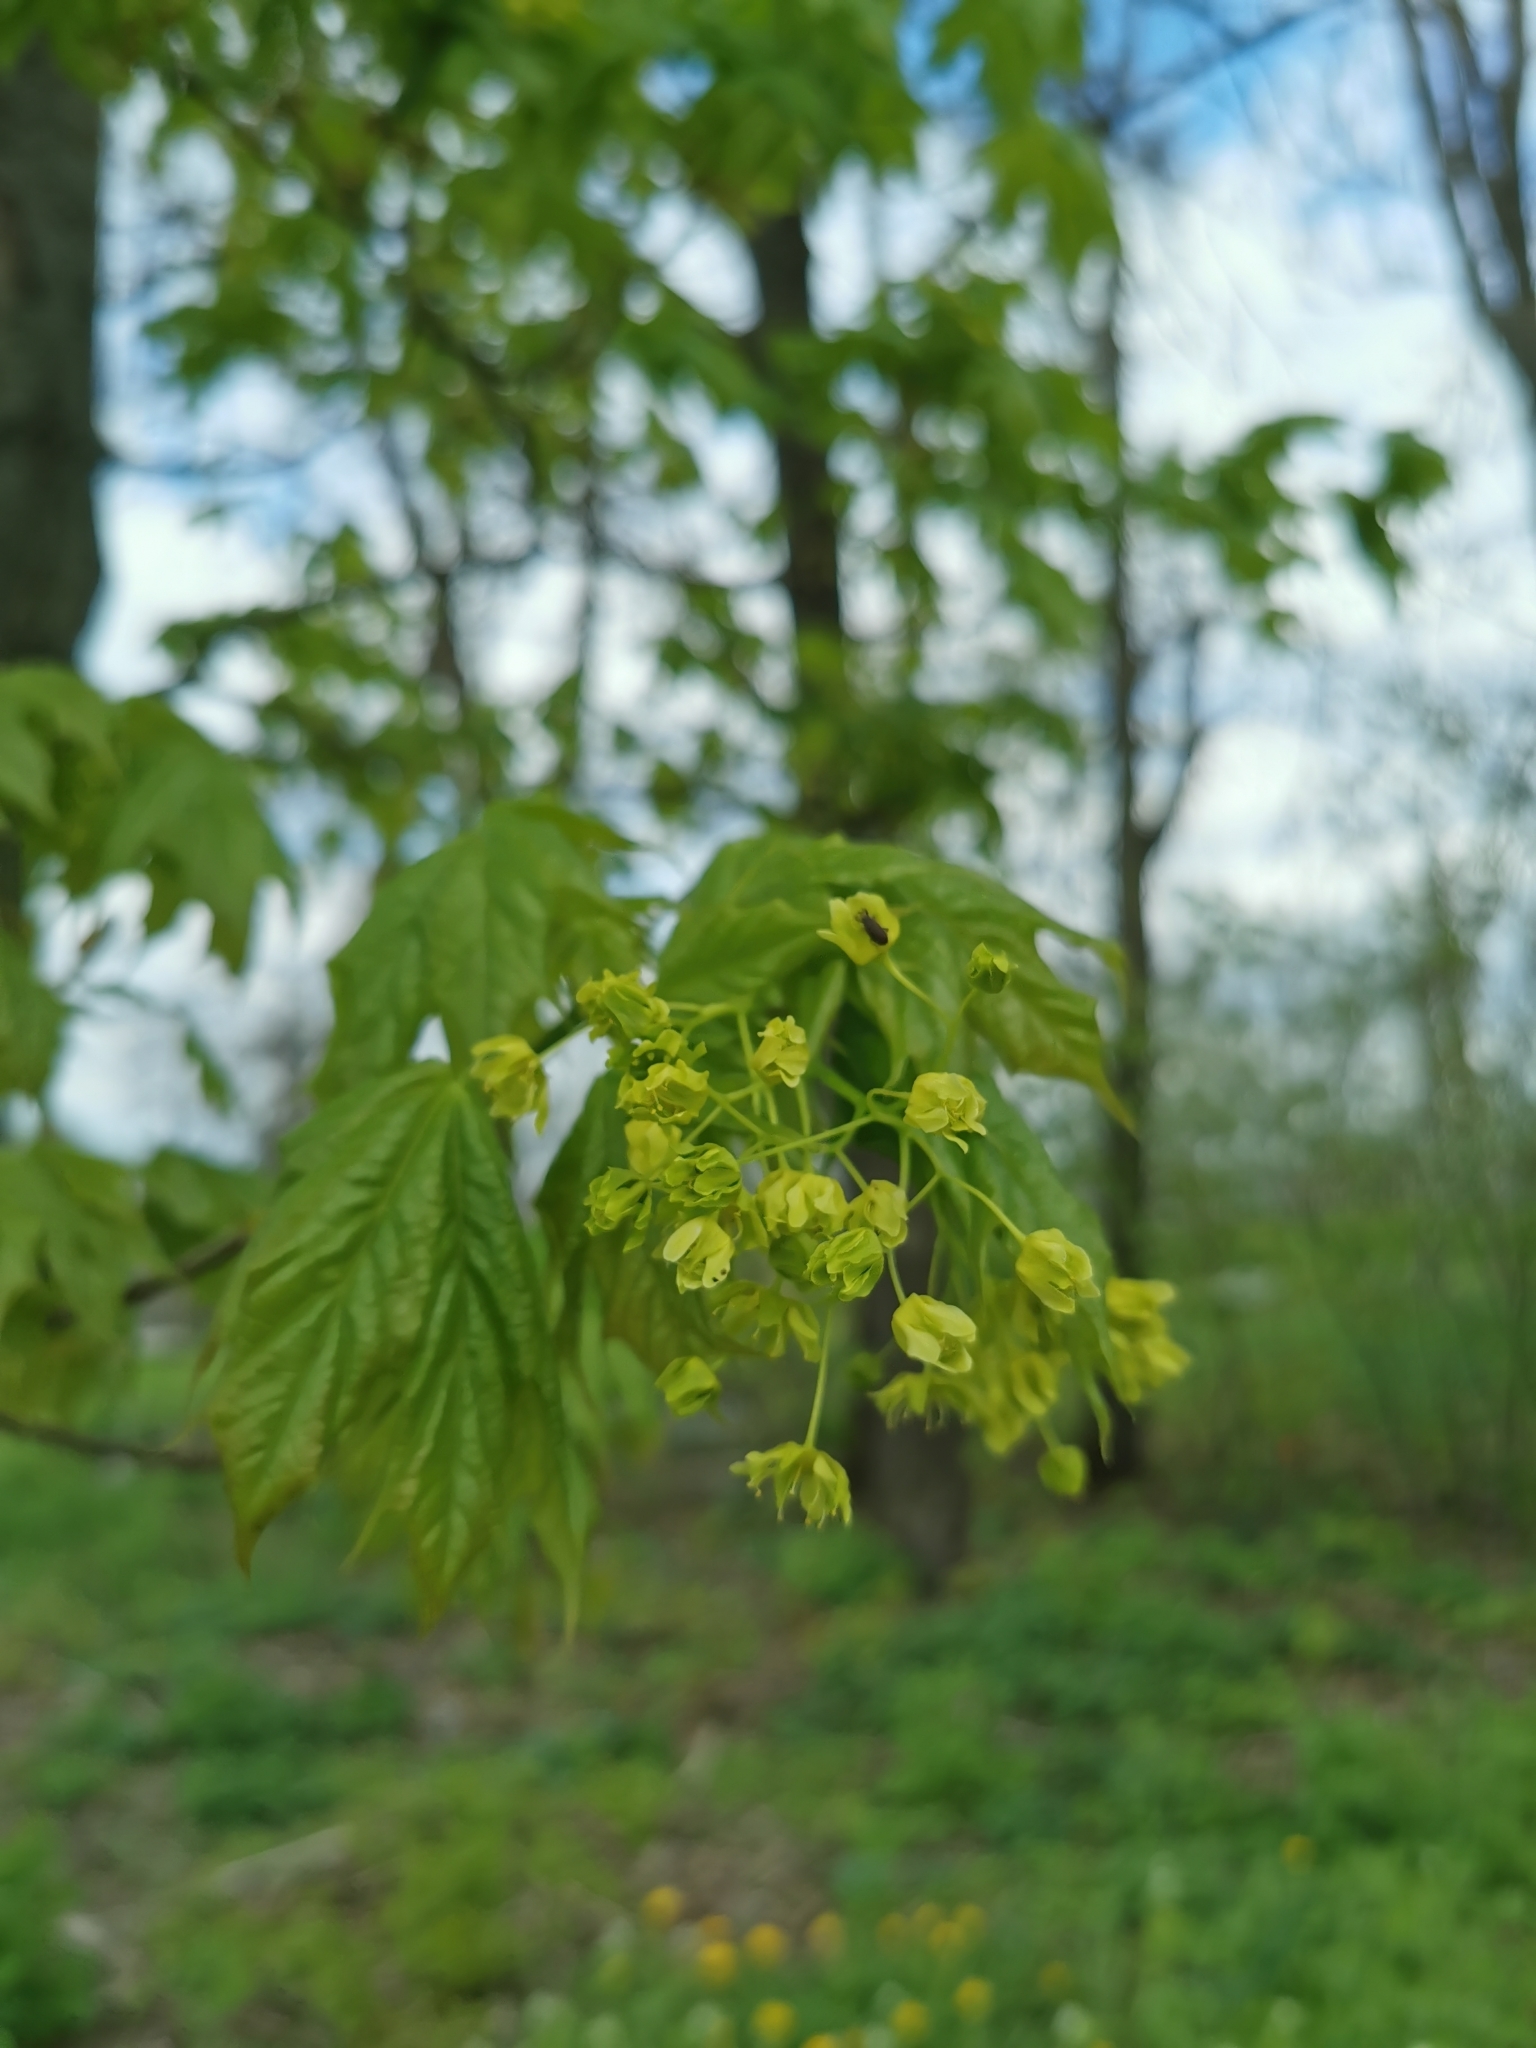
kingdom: Plantae
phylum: Tracheophyta
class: Magnoliopsida
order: Sapindales
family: Sapindaceae
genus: Acer
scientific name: Acer platanoides
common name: Norway maple
